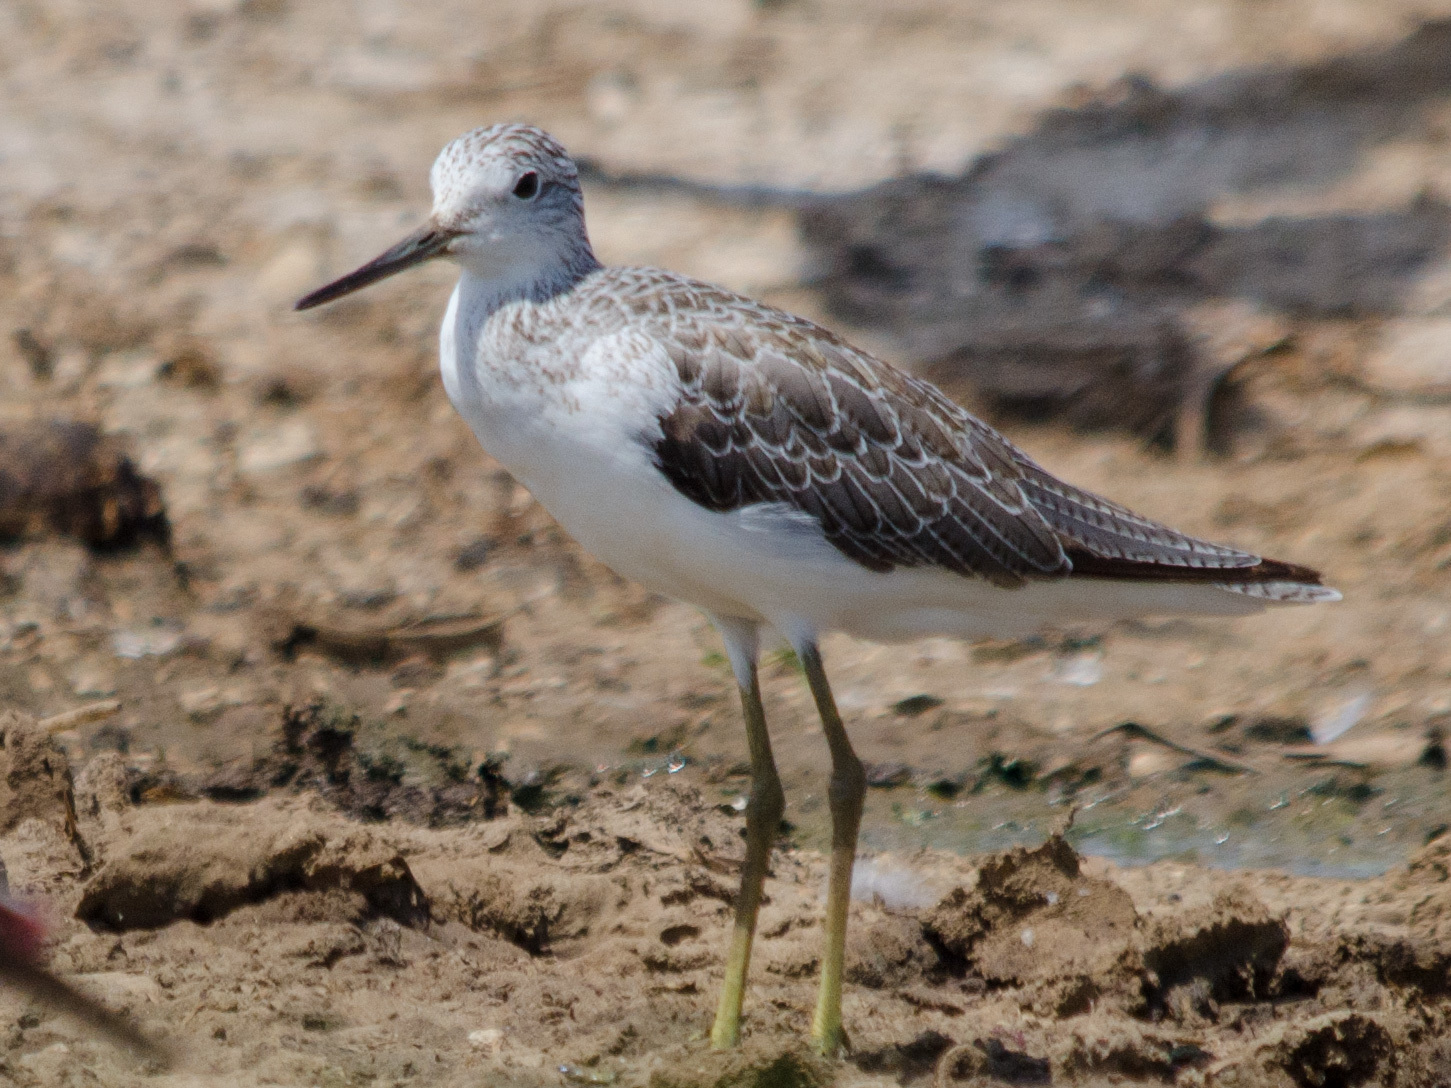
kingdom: Animalia
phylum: Chordata
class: Aves
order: Charadriiformes
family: Scolopacidae
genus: Tringa
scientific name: Tringa nebularia
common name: Common greenshank
